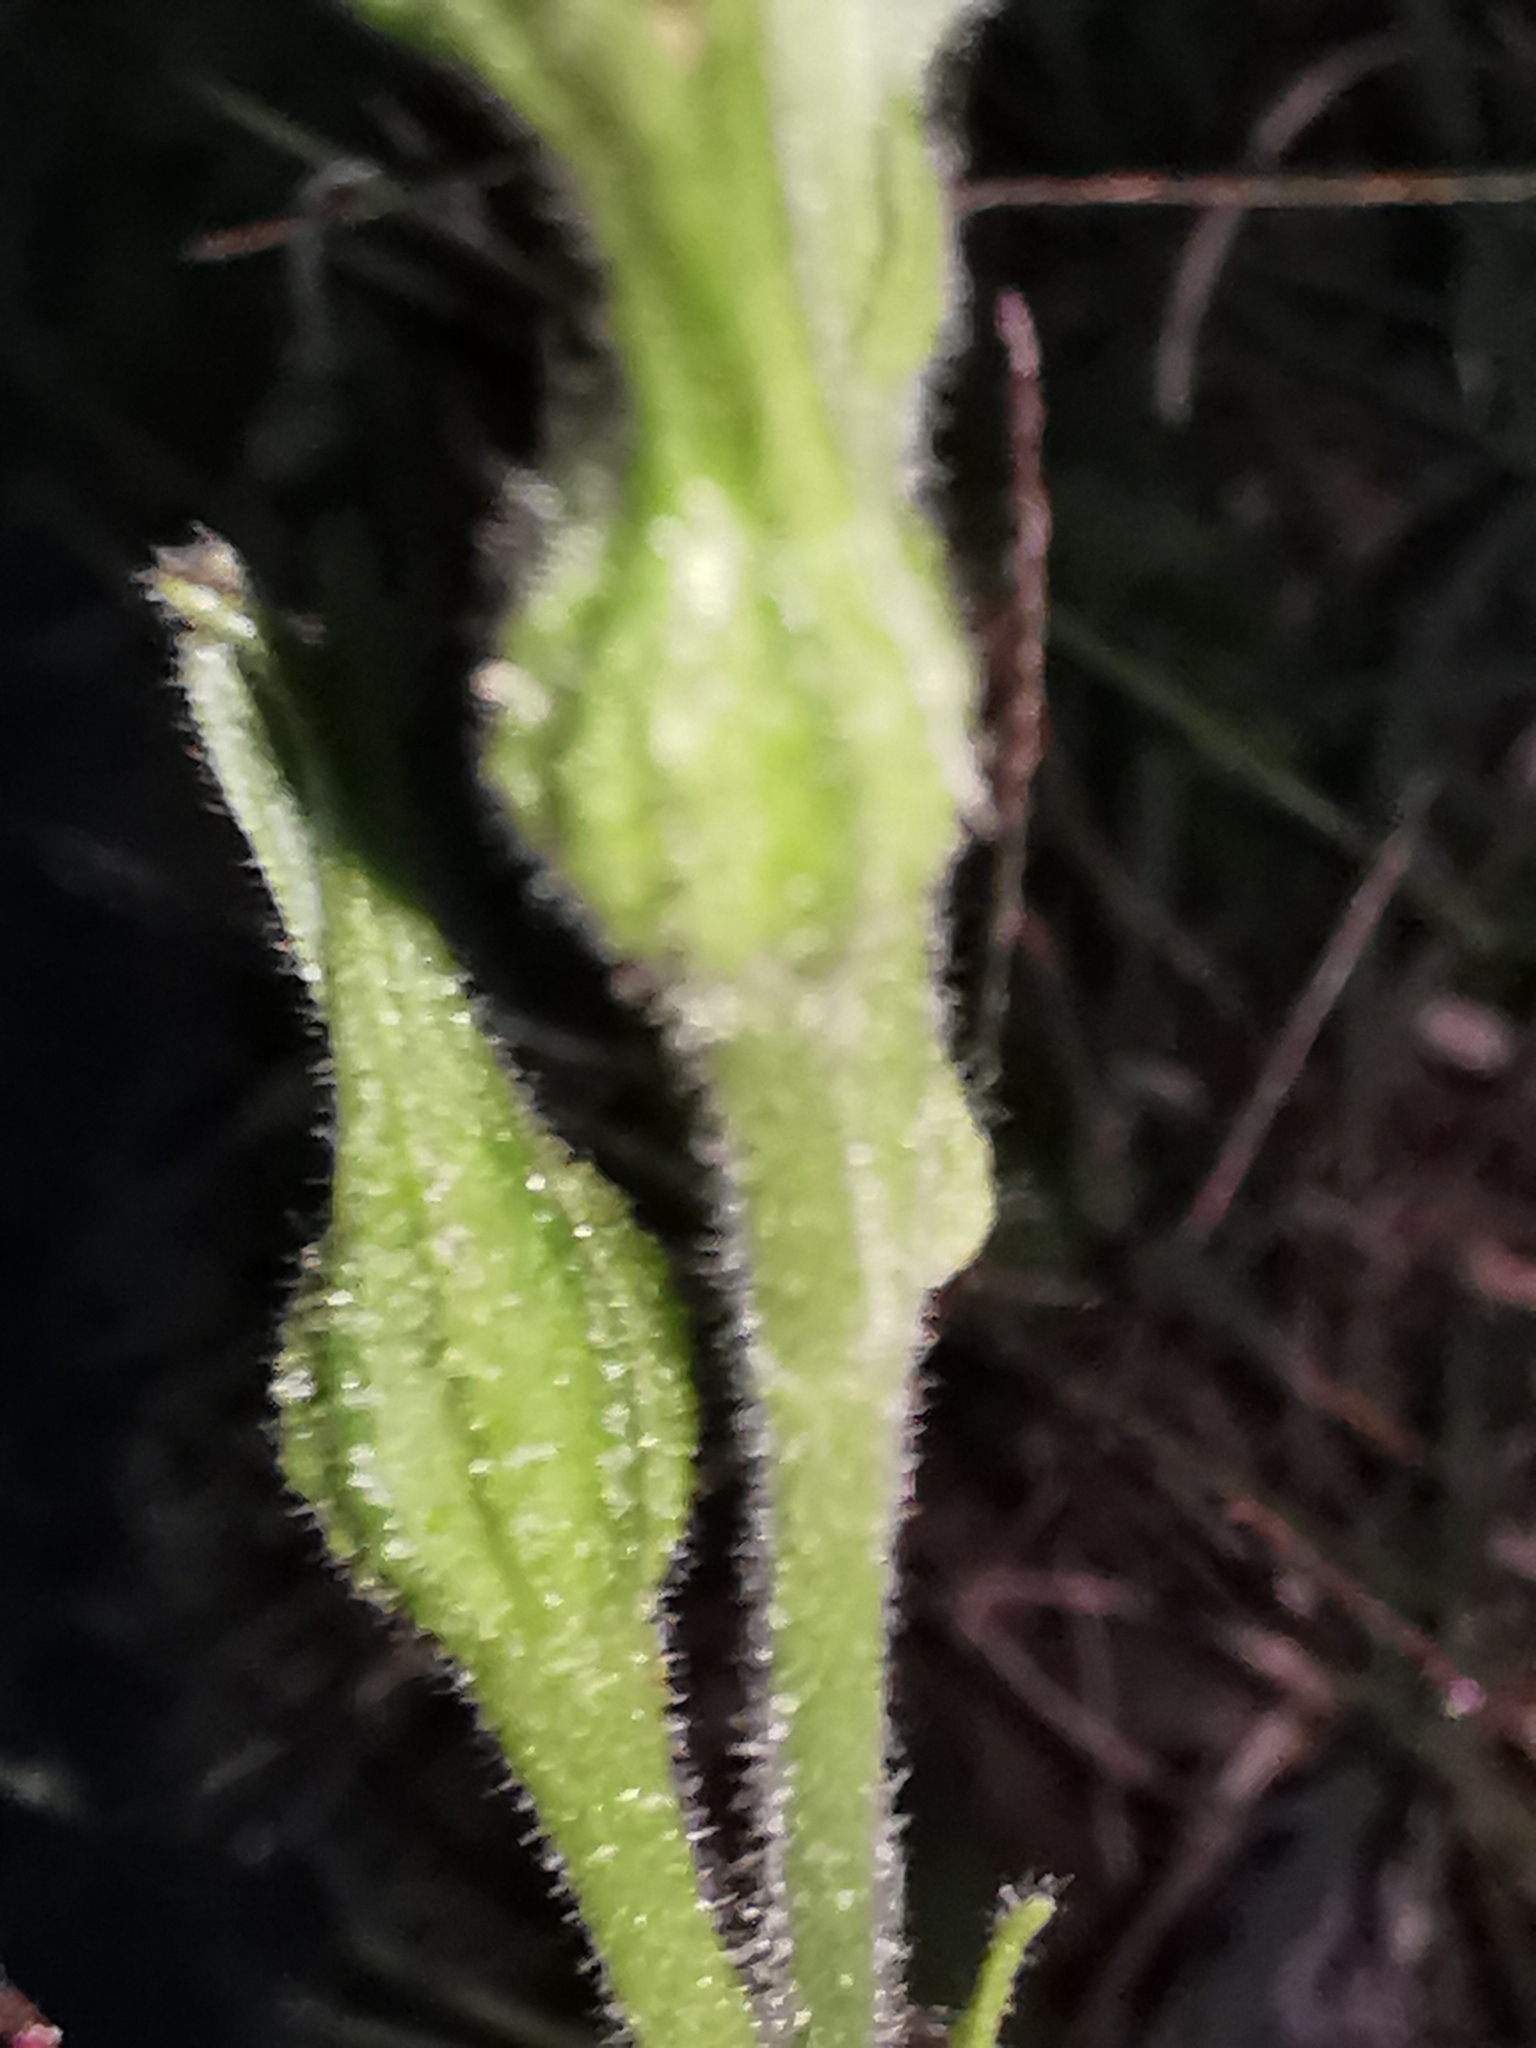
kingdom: Plantae
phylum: Tracheophyta
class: Magnoliopsida
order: Solanales
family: Solanaceae
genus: Nicotiana
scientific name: Nicotiana repanda
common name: Fiddle-leaf tobacco
